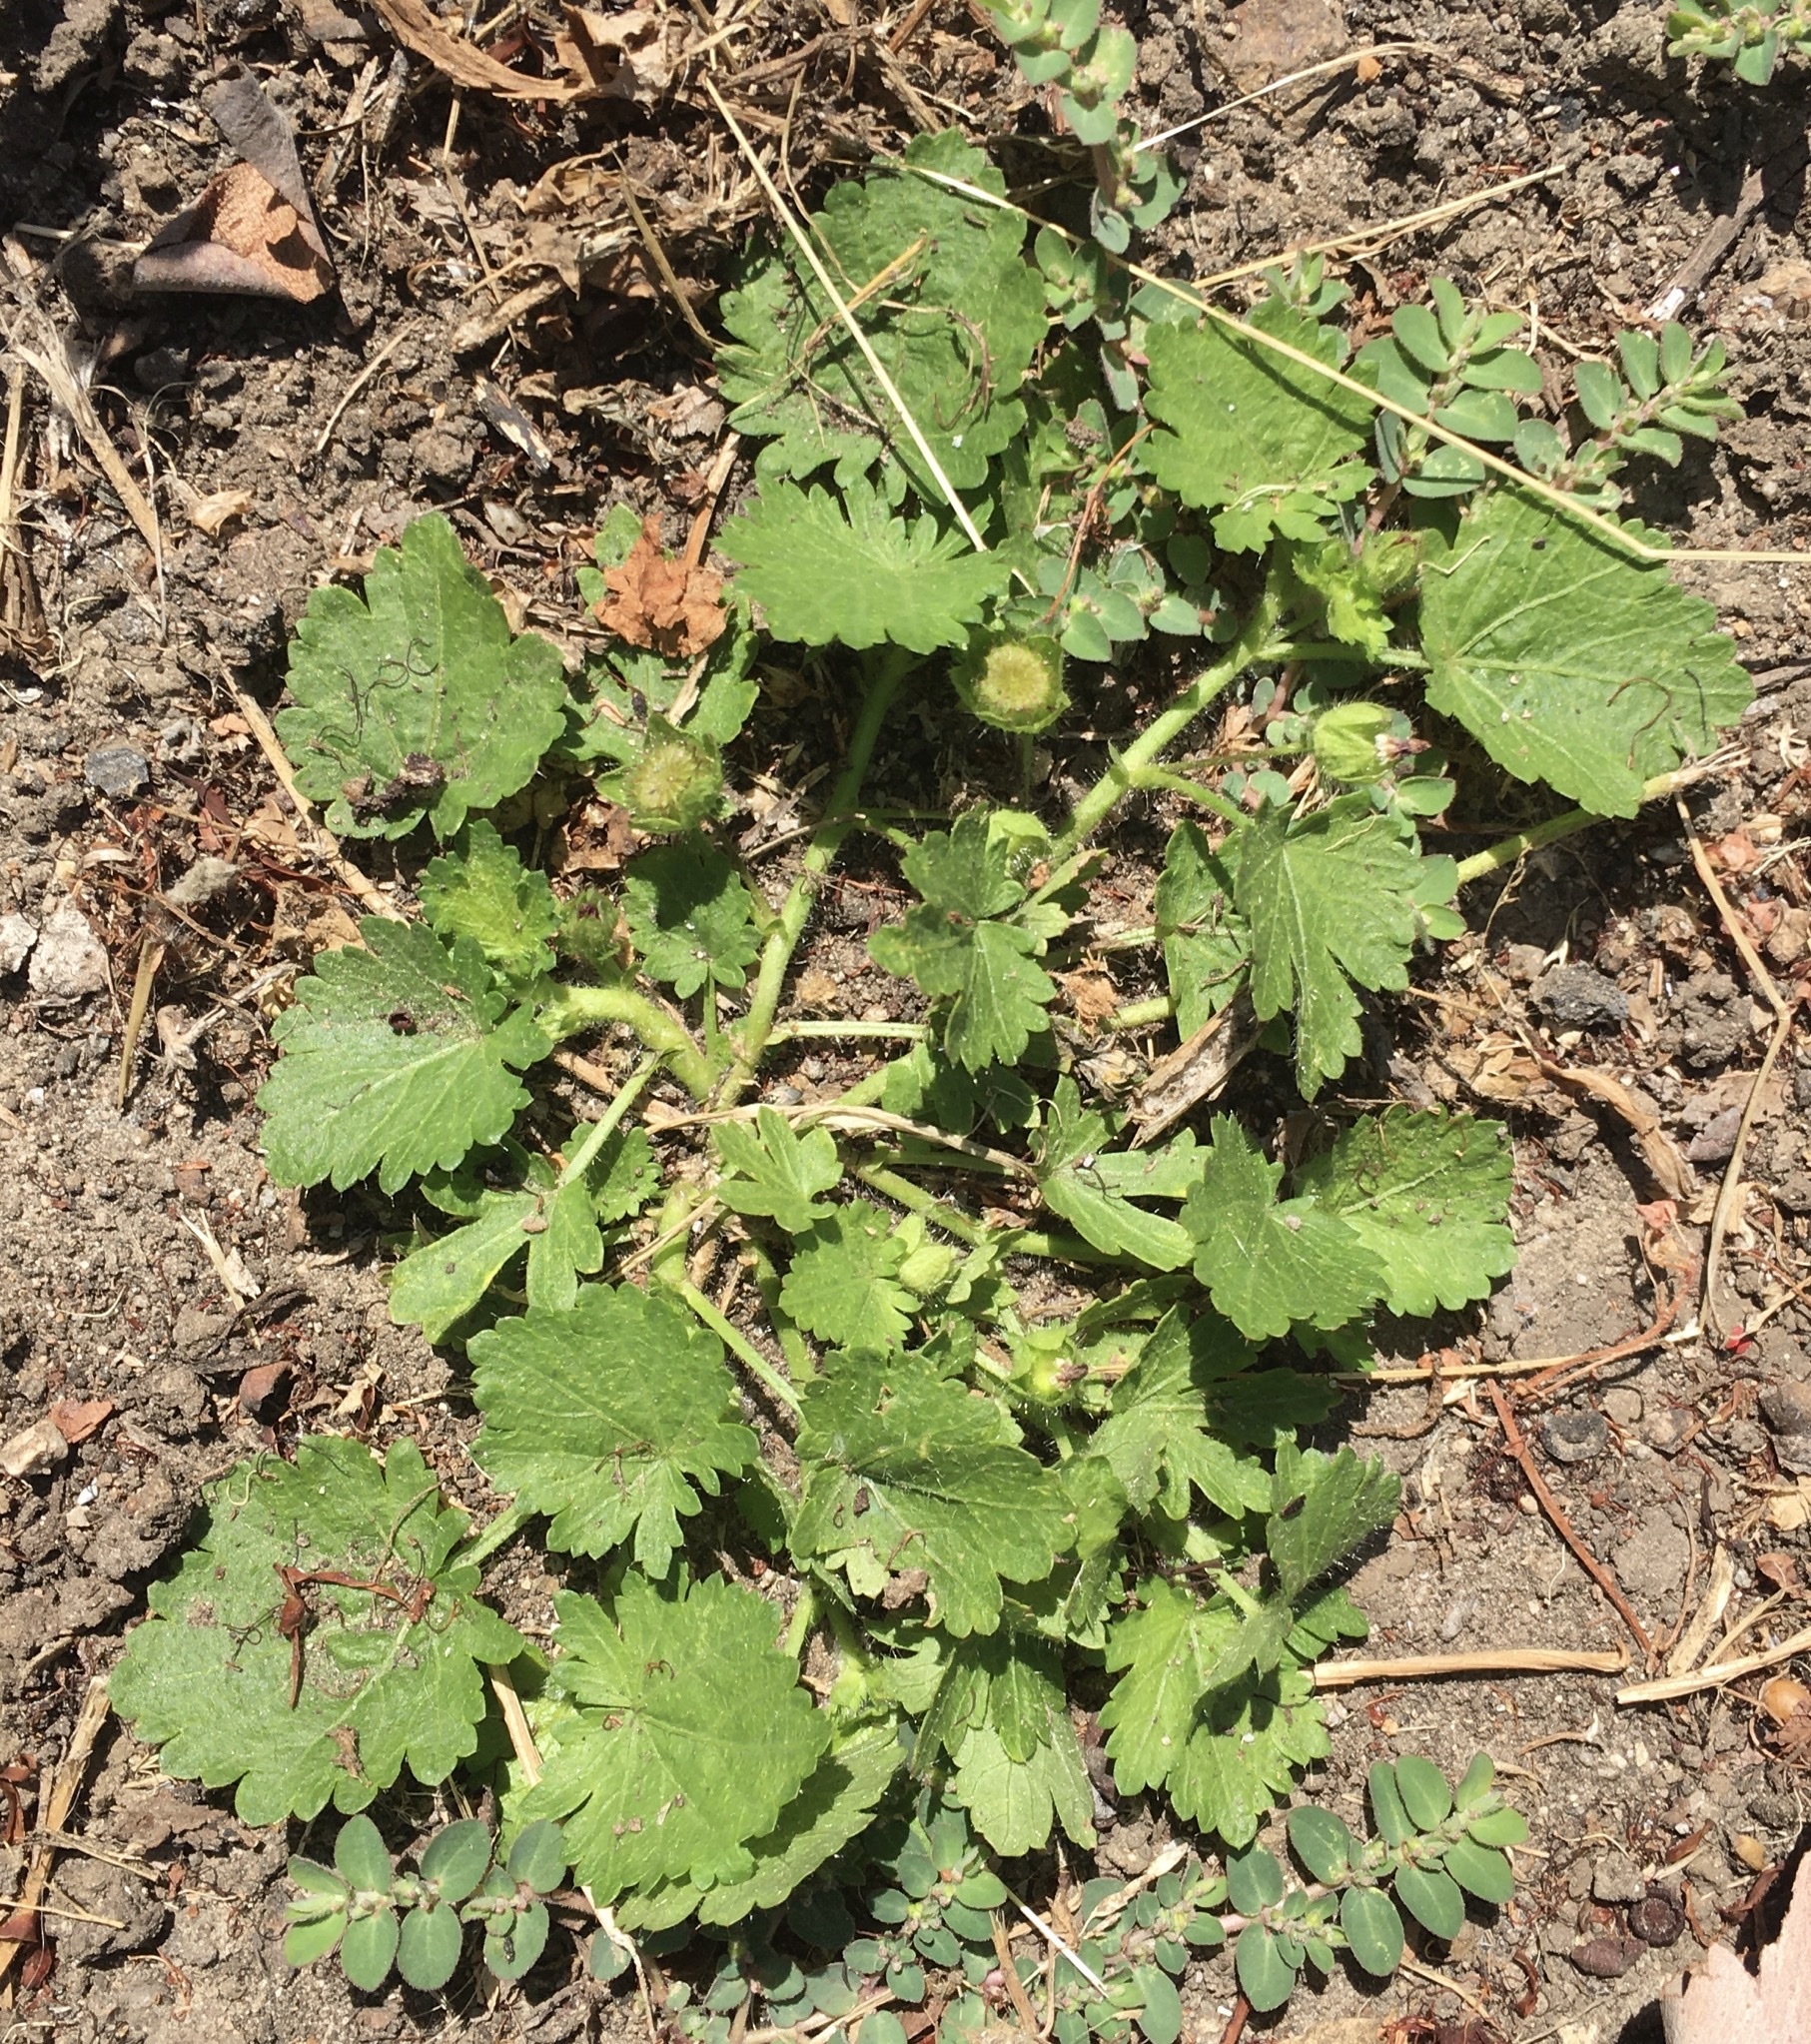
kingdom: Plantae
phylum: Tracheophyta
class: Magnoliopsida
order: Malvales
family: Malvaceae
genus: Modiola
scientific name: Modiola caroliniana
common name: Carolina bristlemallow
